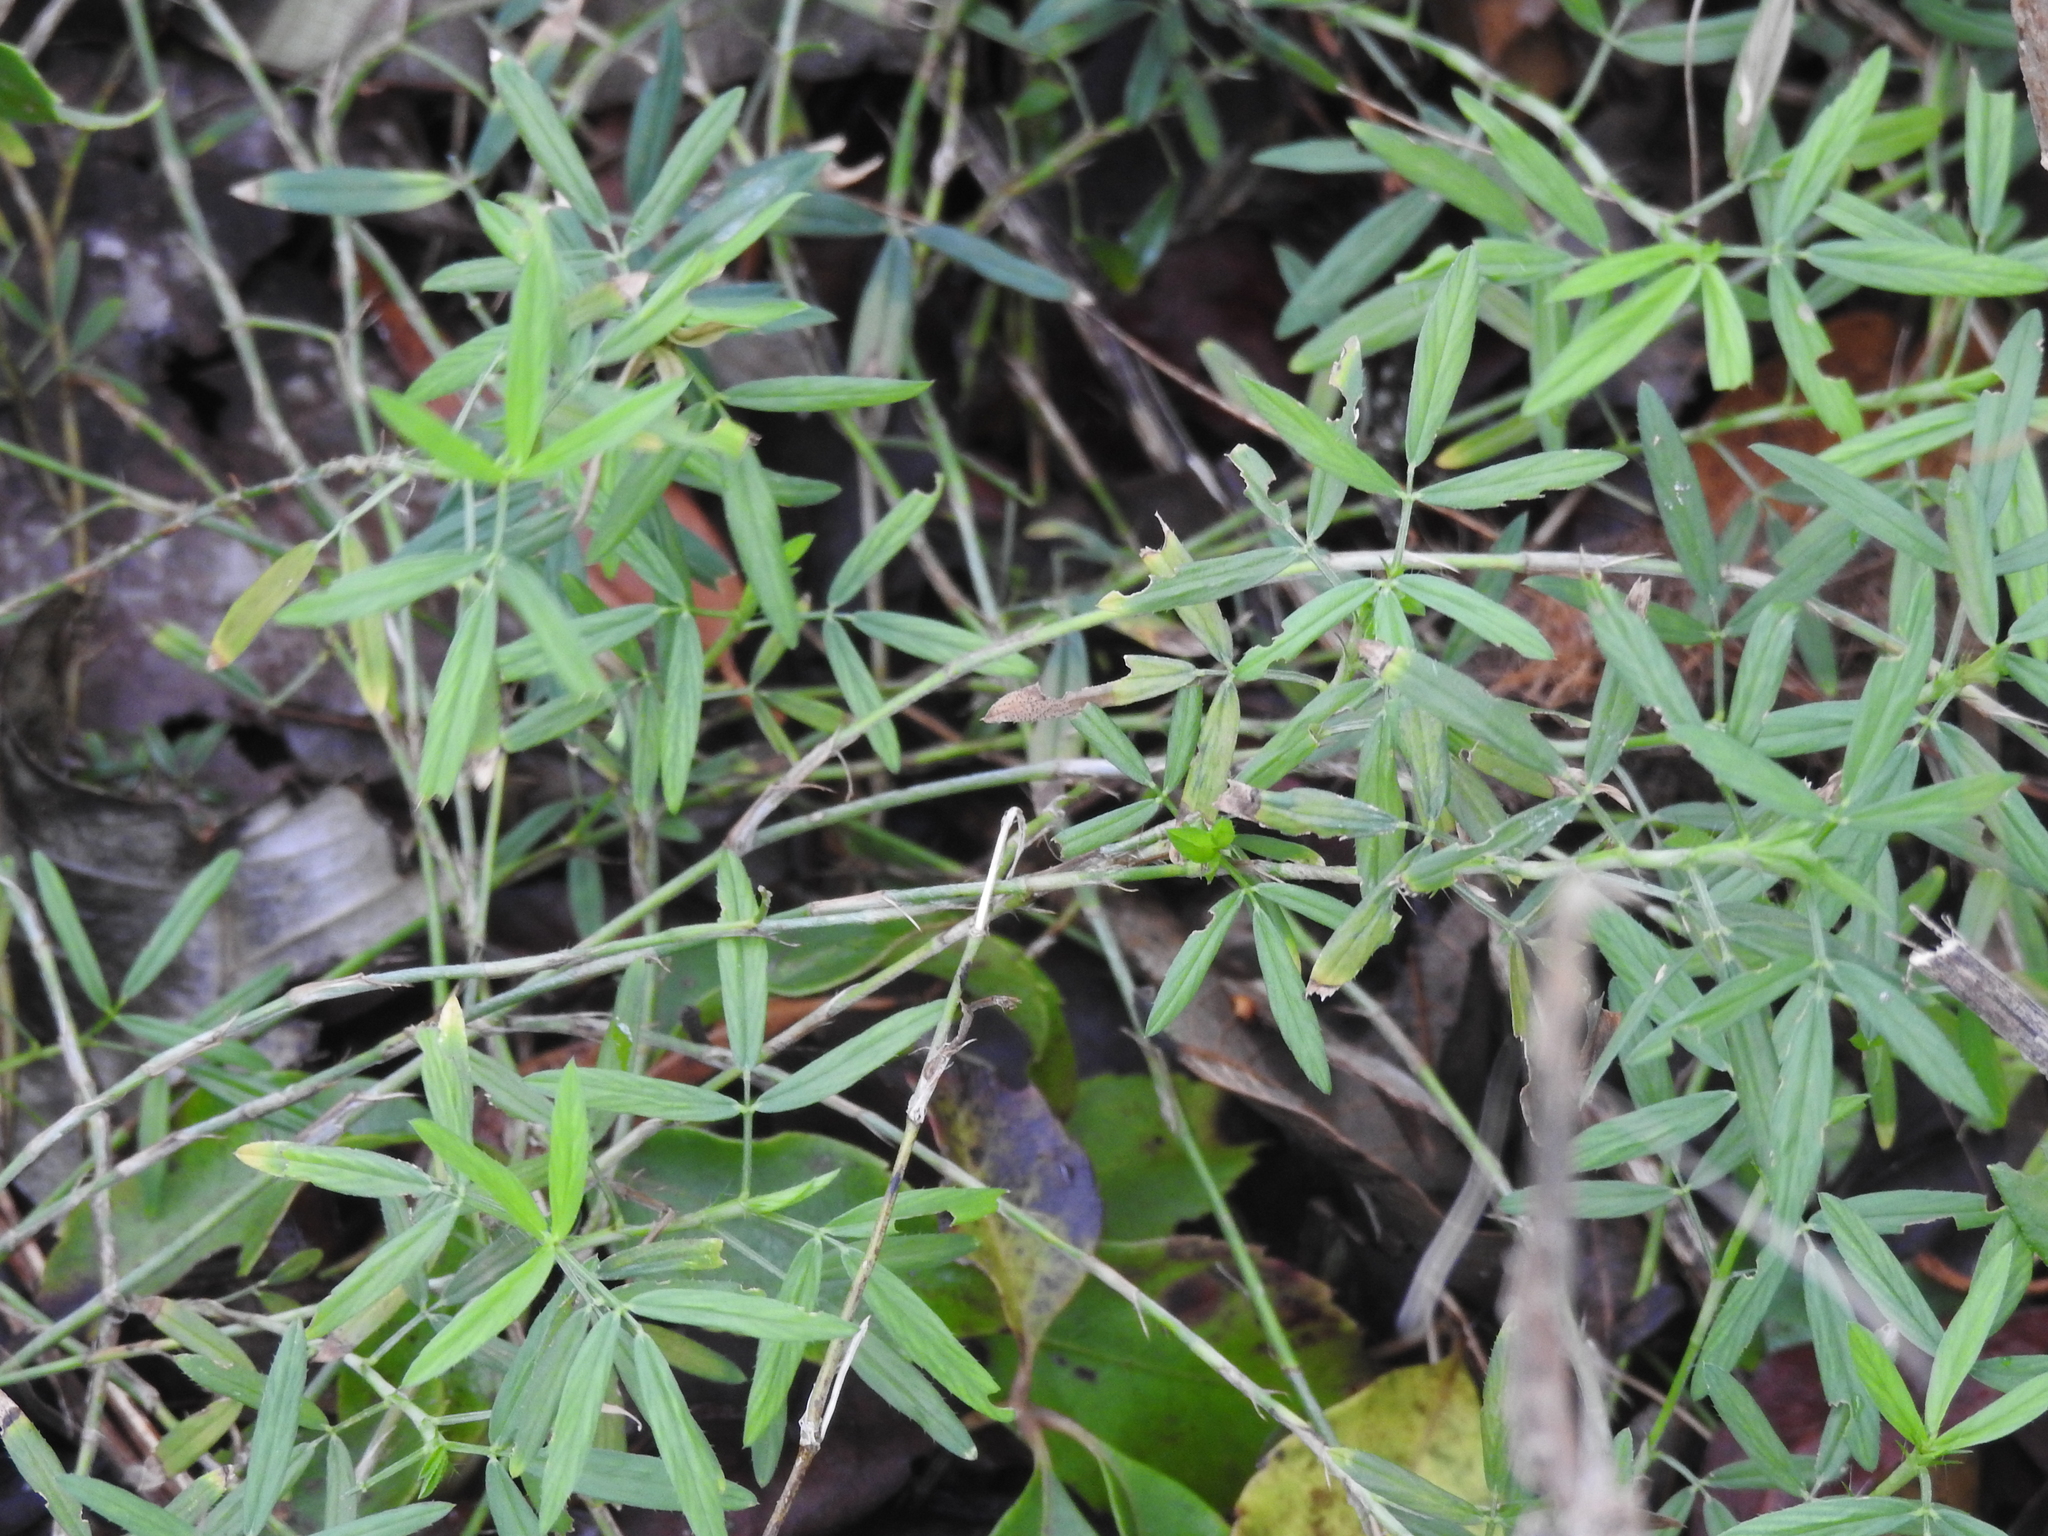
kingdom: Plantae
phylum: Tracheophyta
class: Magnoliopsida
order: Fabales
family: Fabaceae
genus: Stylosanthes
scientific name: Stylosanthes hamata
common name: Cheesytoes
